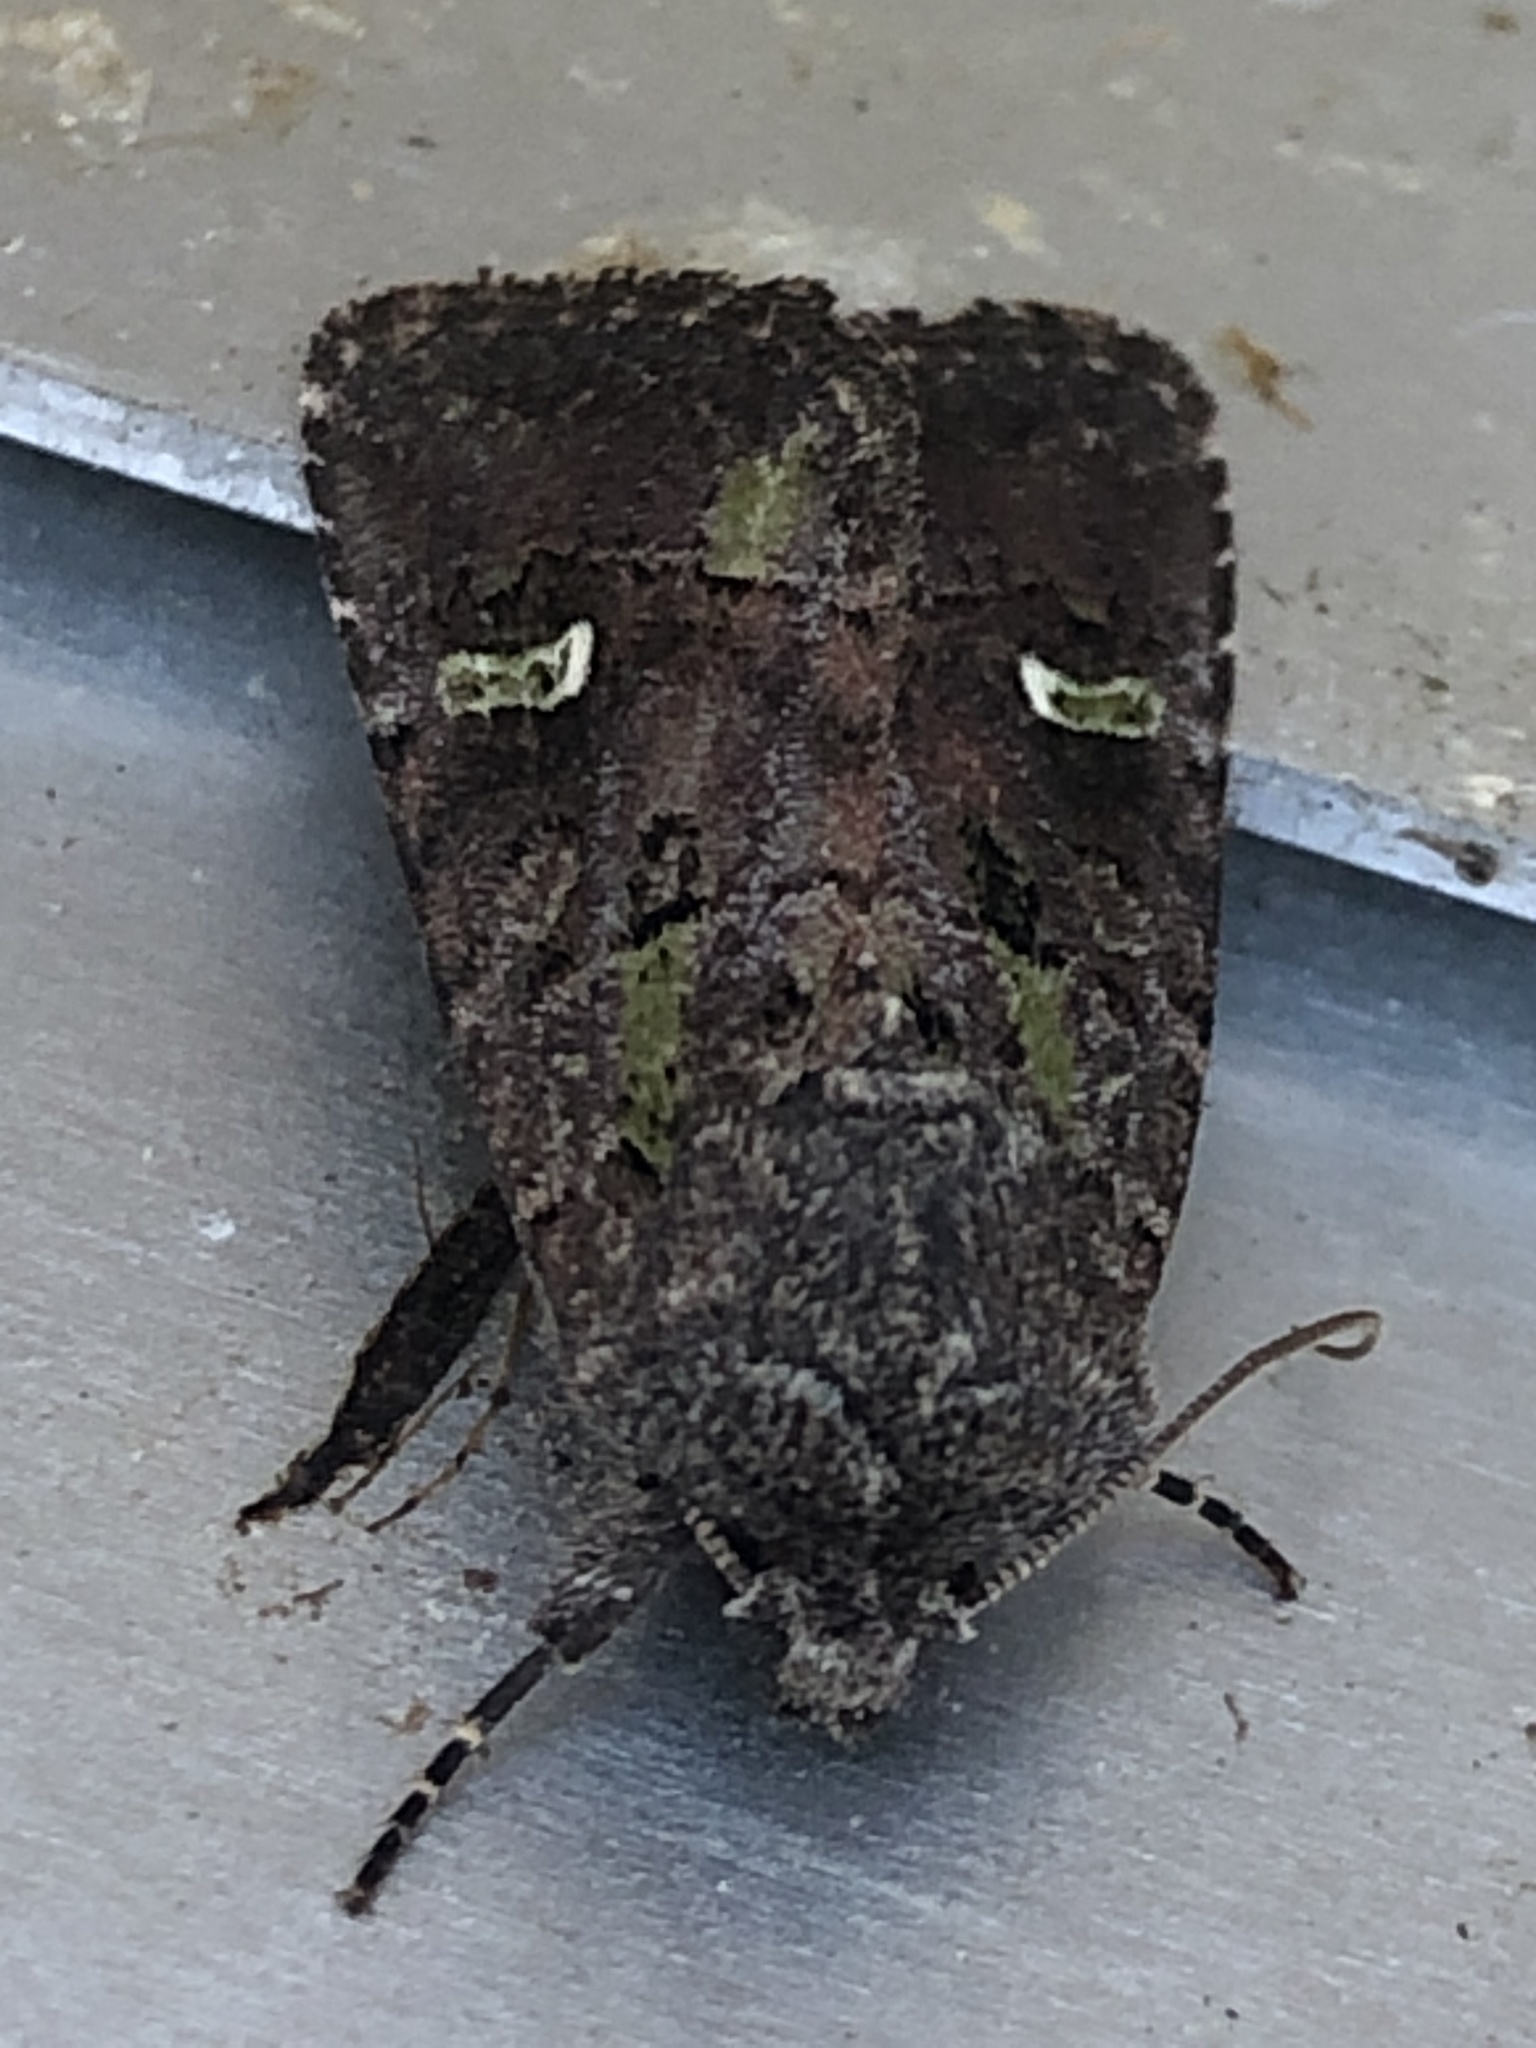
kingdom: Animalia
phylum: Arthropoda
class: Insecta
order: Lepidoptera
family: Noctuidae
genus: Lacinipolia
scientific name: Lacinipolia renigera
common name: Kidney-spotted minor
